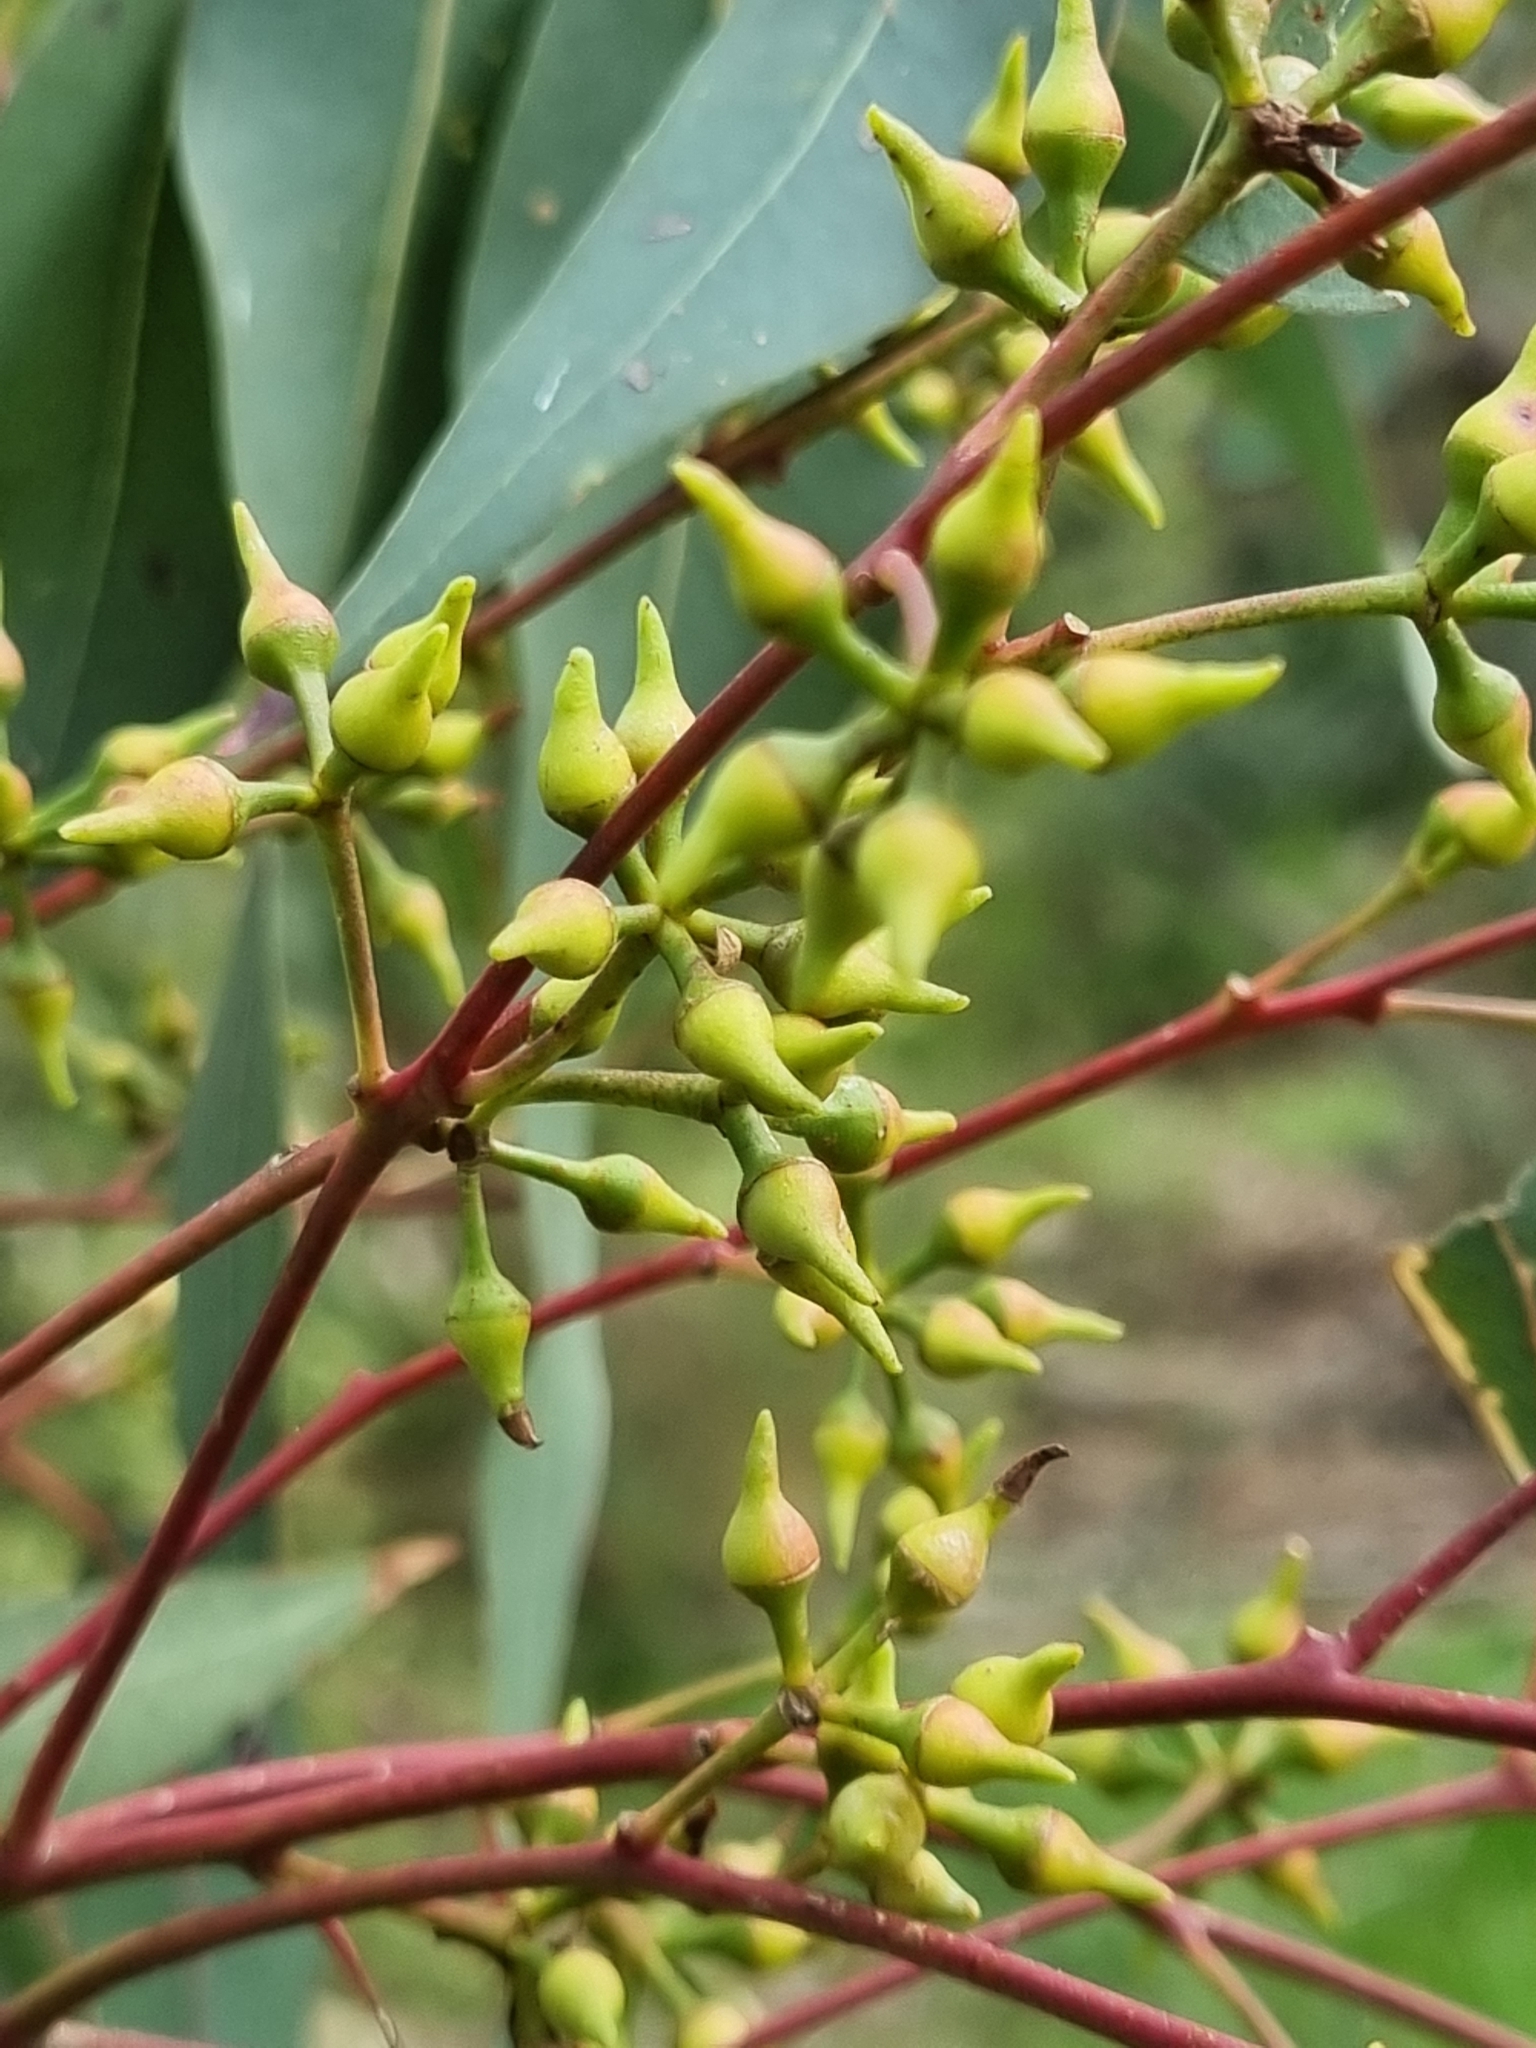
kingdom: Plantae
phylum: Tracheophyta
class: Magnoliopsida
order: Myrtales
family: Myrtaceae
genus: Eucalyptus
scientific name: Eucalyptus camaldulensis
